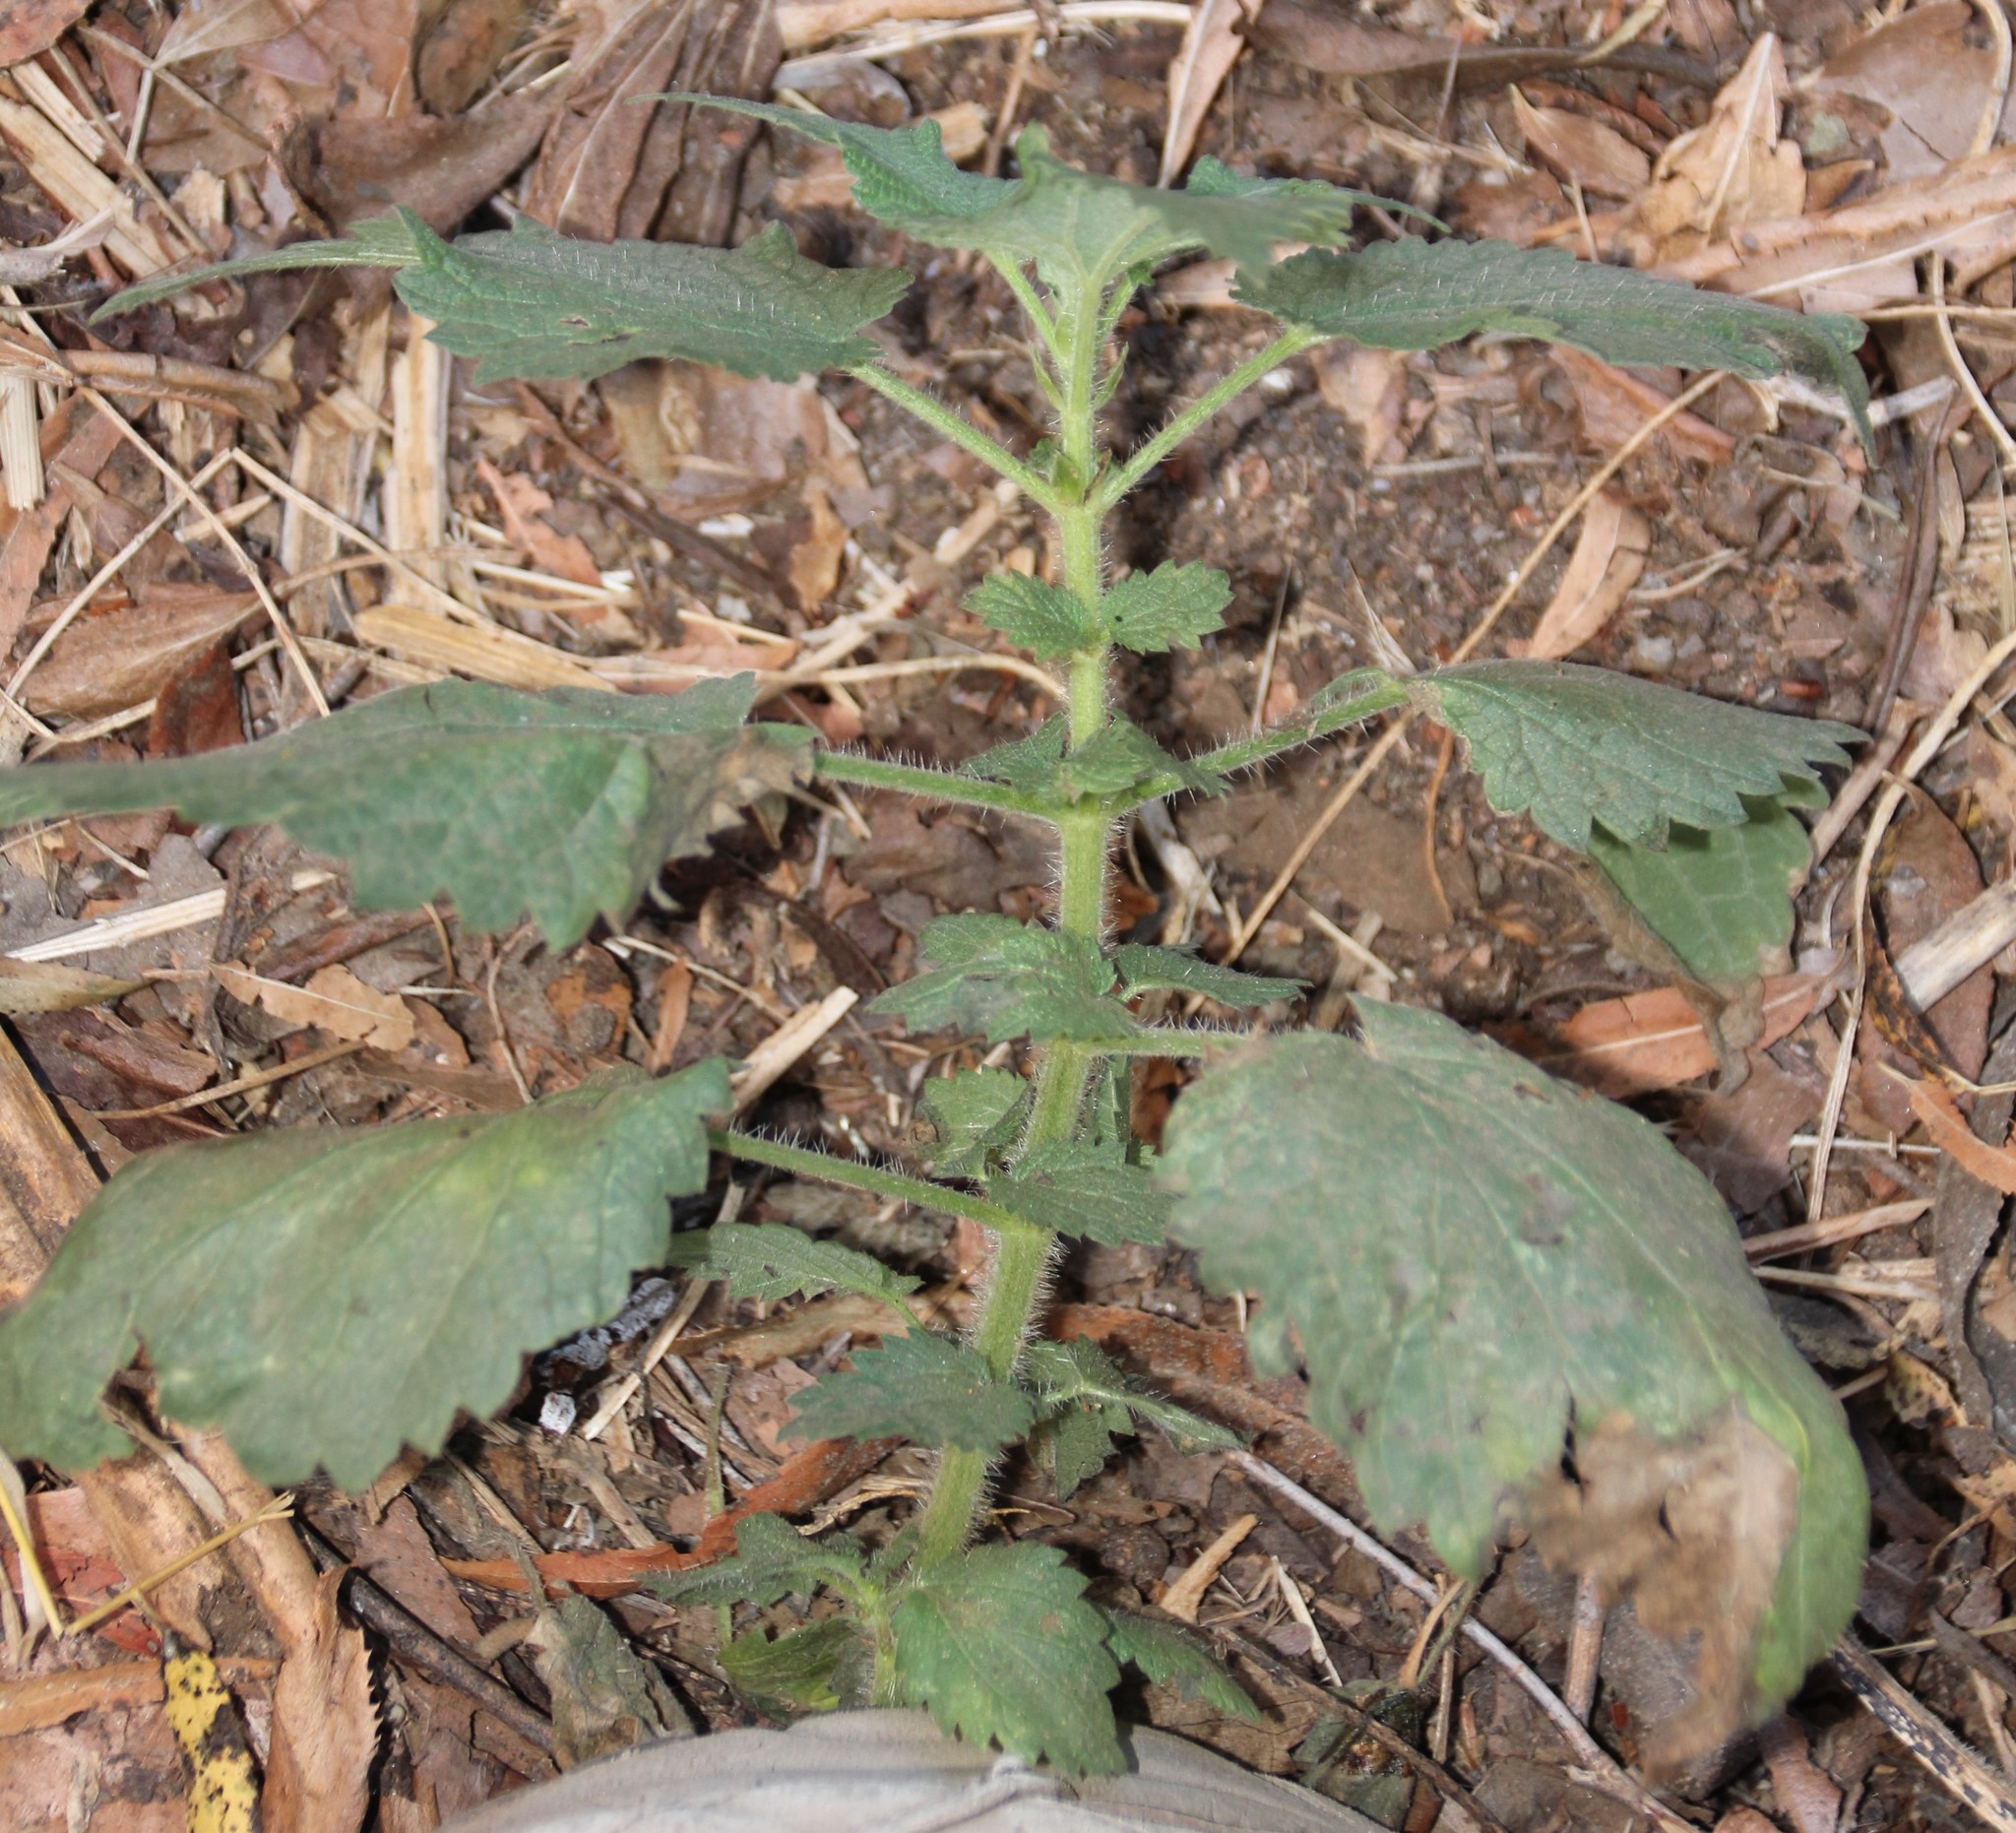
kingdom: Plantae
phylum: Tracheophyta
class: Magnoliopsida
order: Rosales
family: Urticaceae
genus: Urtica
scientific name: Urtica dioica
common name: Common nettle
